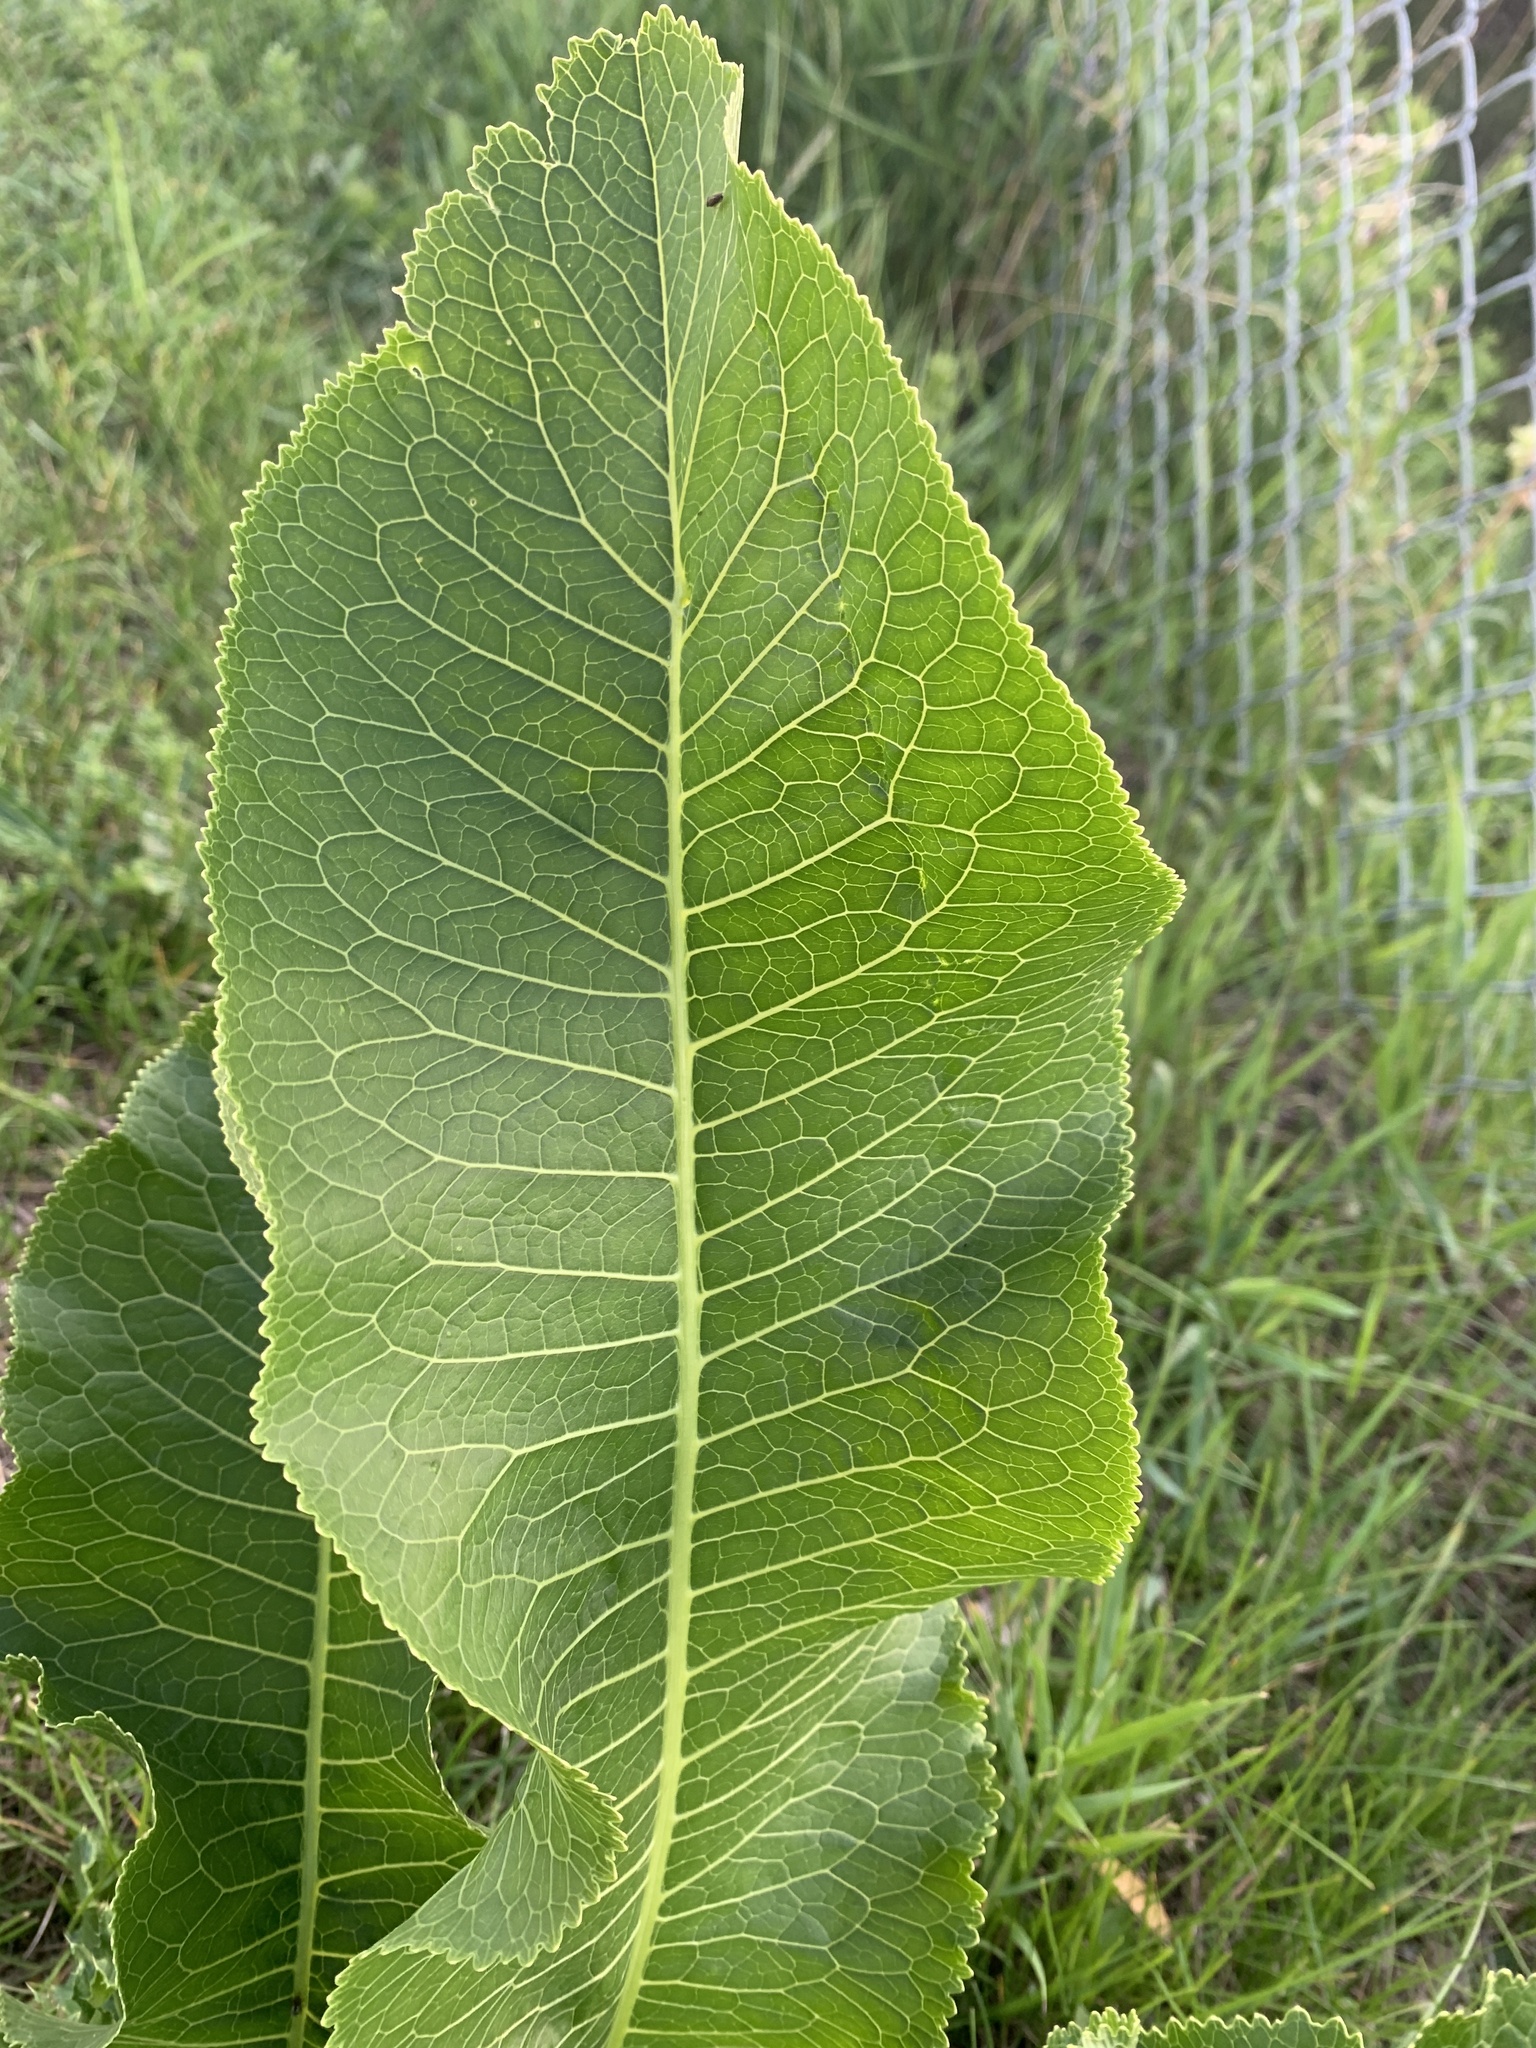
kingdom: Plantae
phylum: Tracheophyta
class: Magnoliopsida
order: Brassicales
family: Brassicaceae
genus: Armoracia
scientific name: Armoracia rusticana
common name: Horseradish
